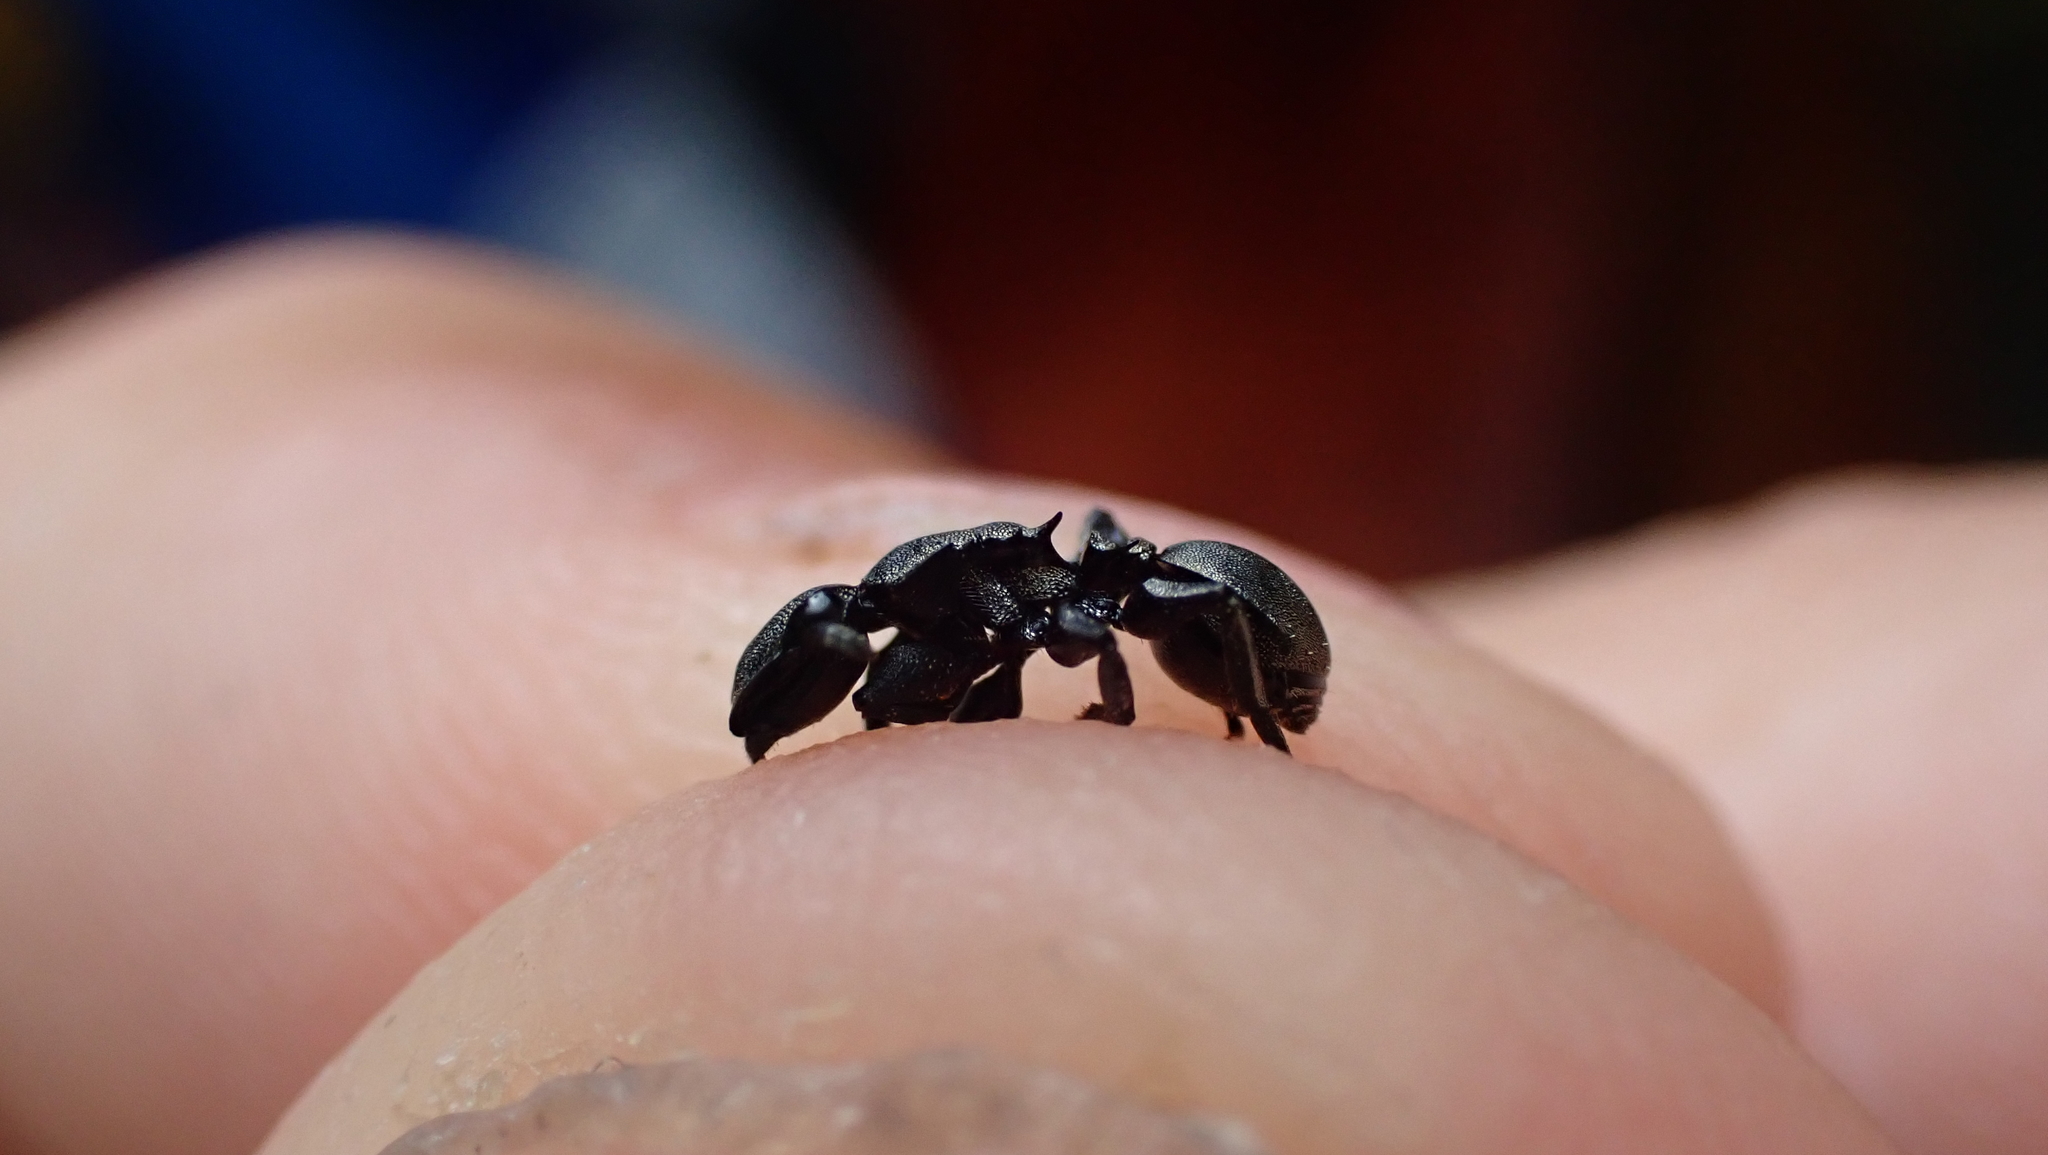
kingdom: Animalia
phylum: Arthropoda
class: Insecta
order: Hymenoptera
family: Formicidae
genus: Cephalotes
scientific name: Cephalotes basalis
